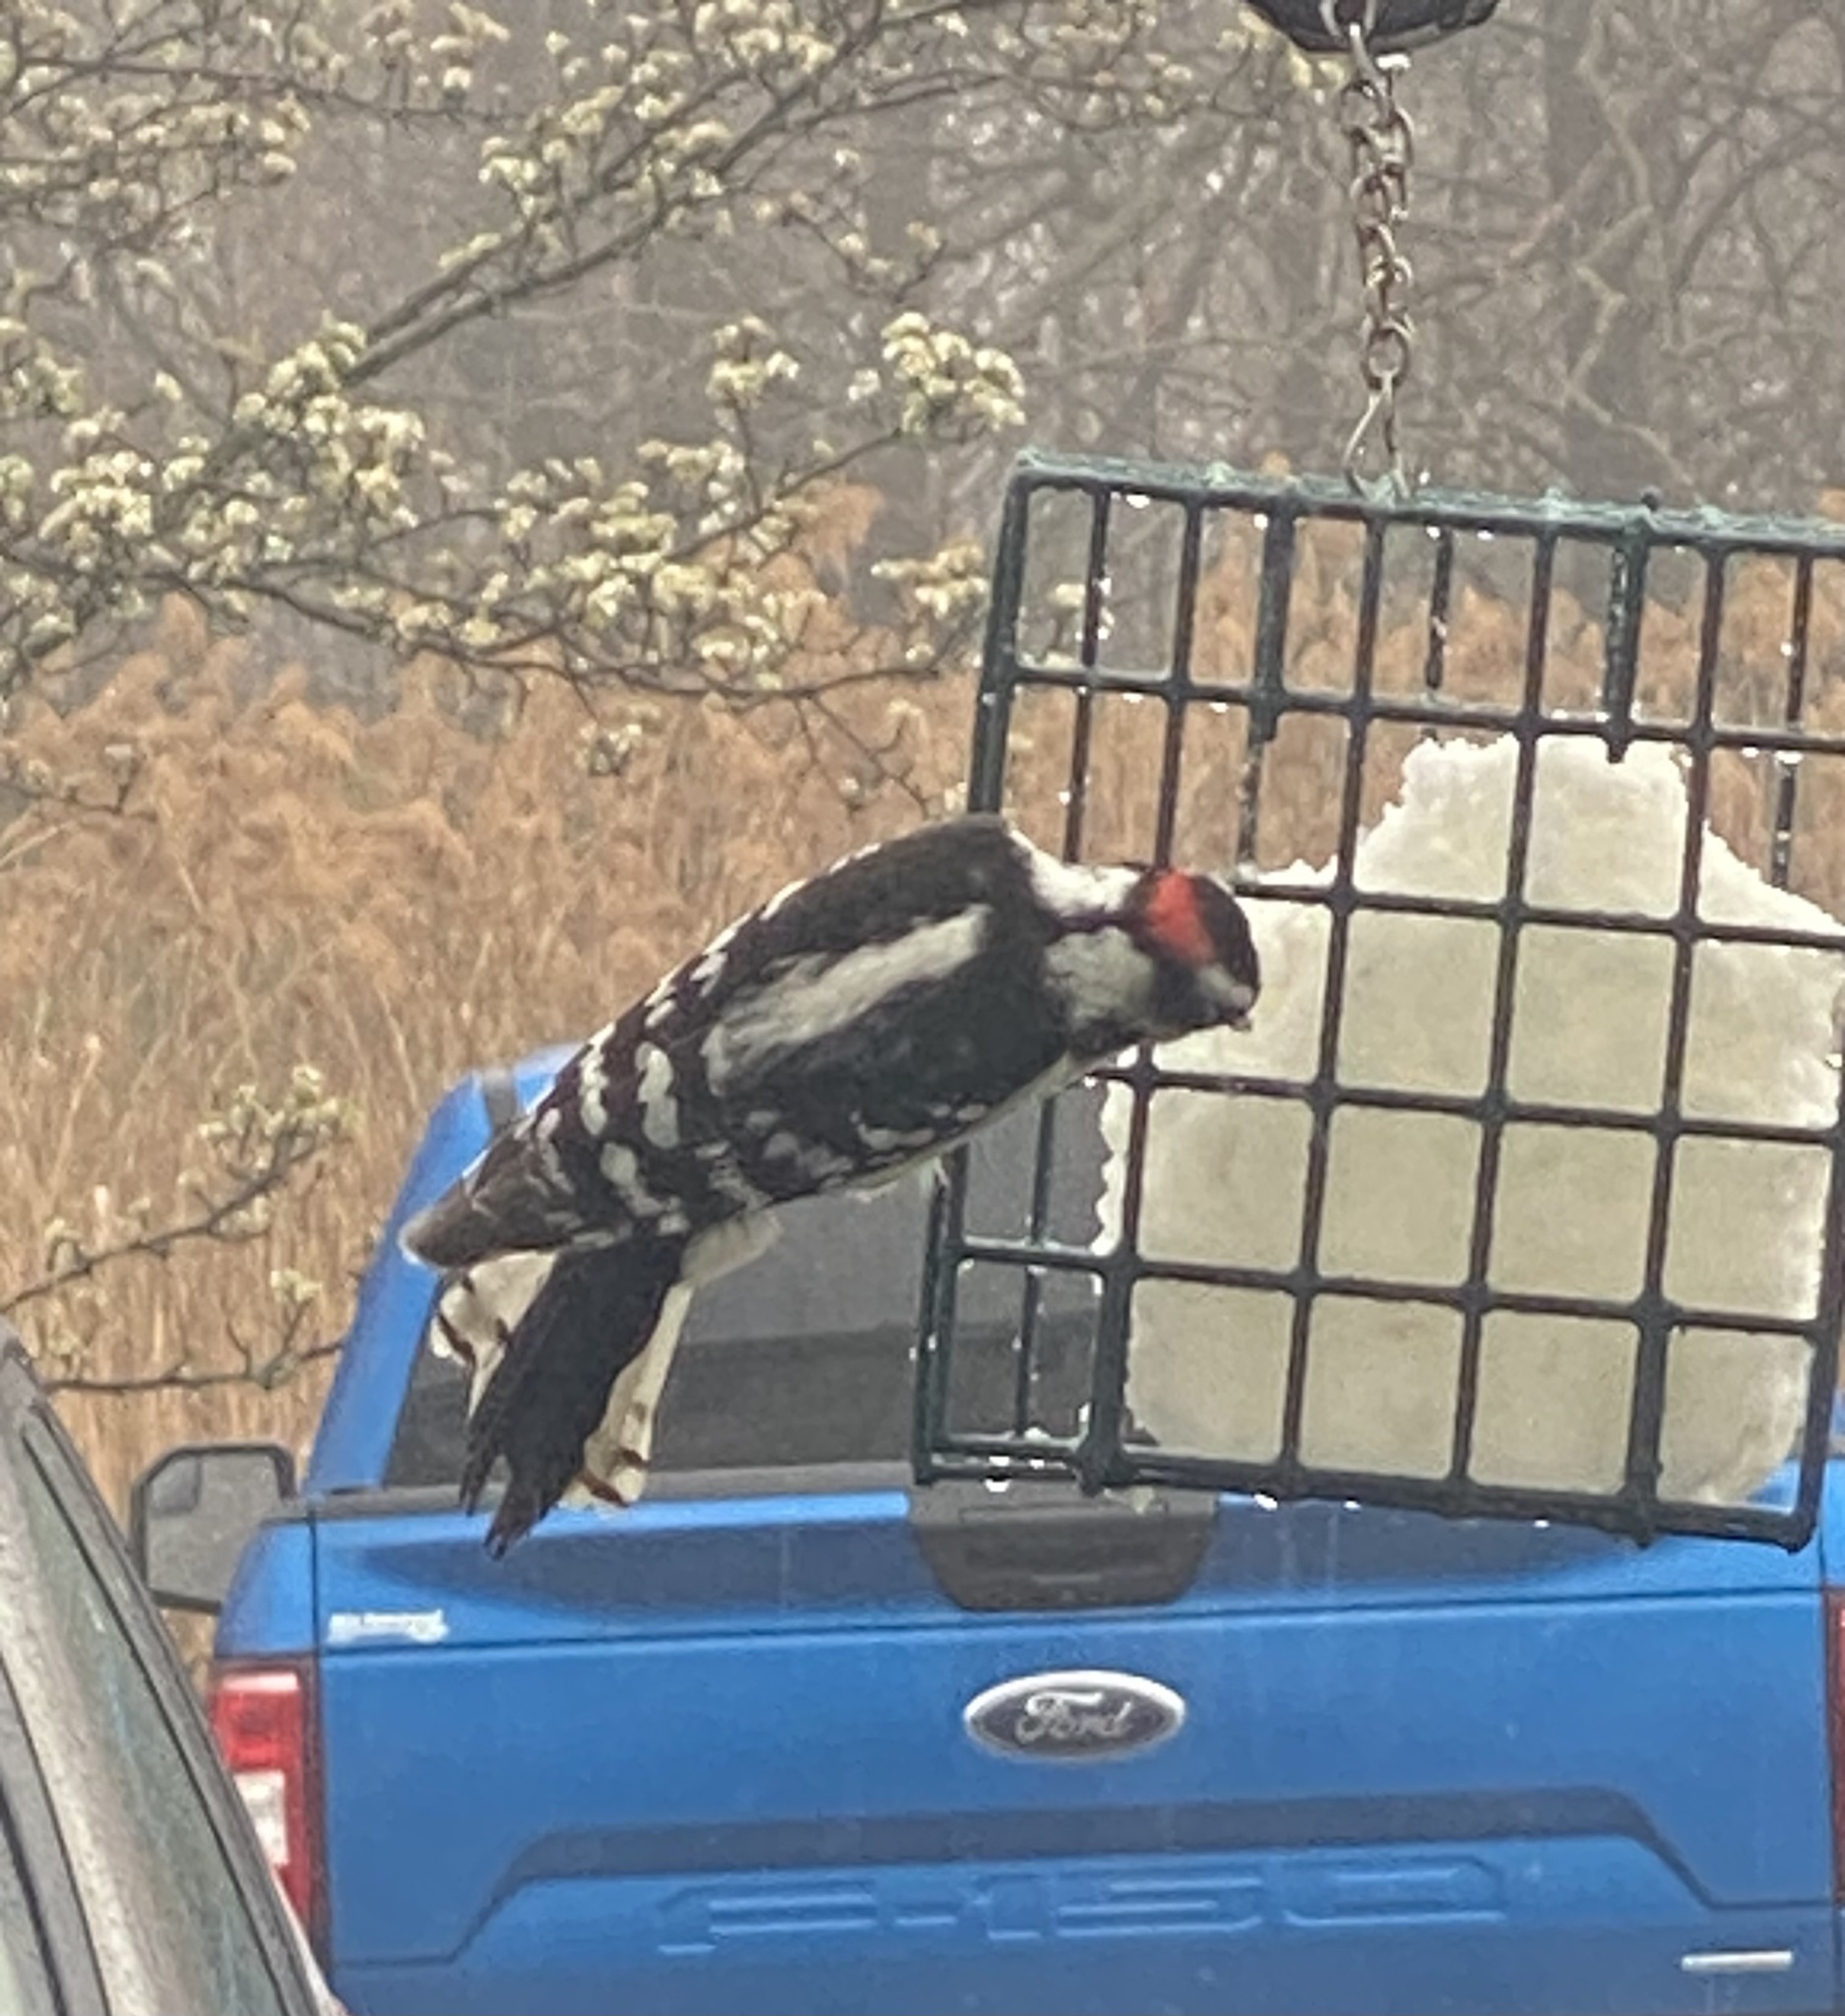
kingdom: Animalia
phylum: Chordata
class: Aves
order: Piciformes
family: Picidae
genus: Dryobates
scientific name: Dryobates pubescens
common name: Downy woodpecker
